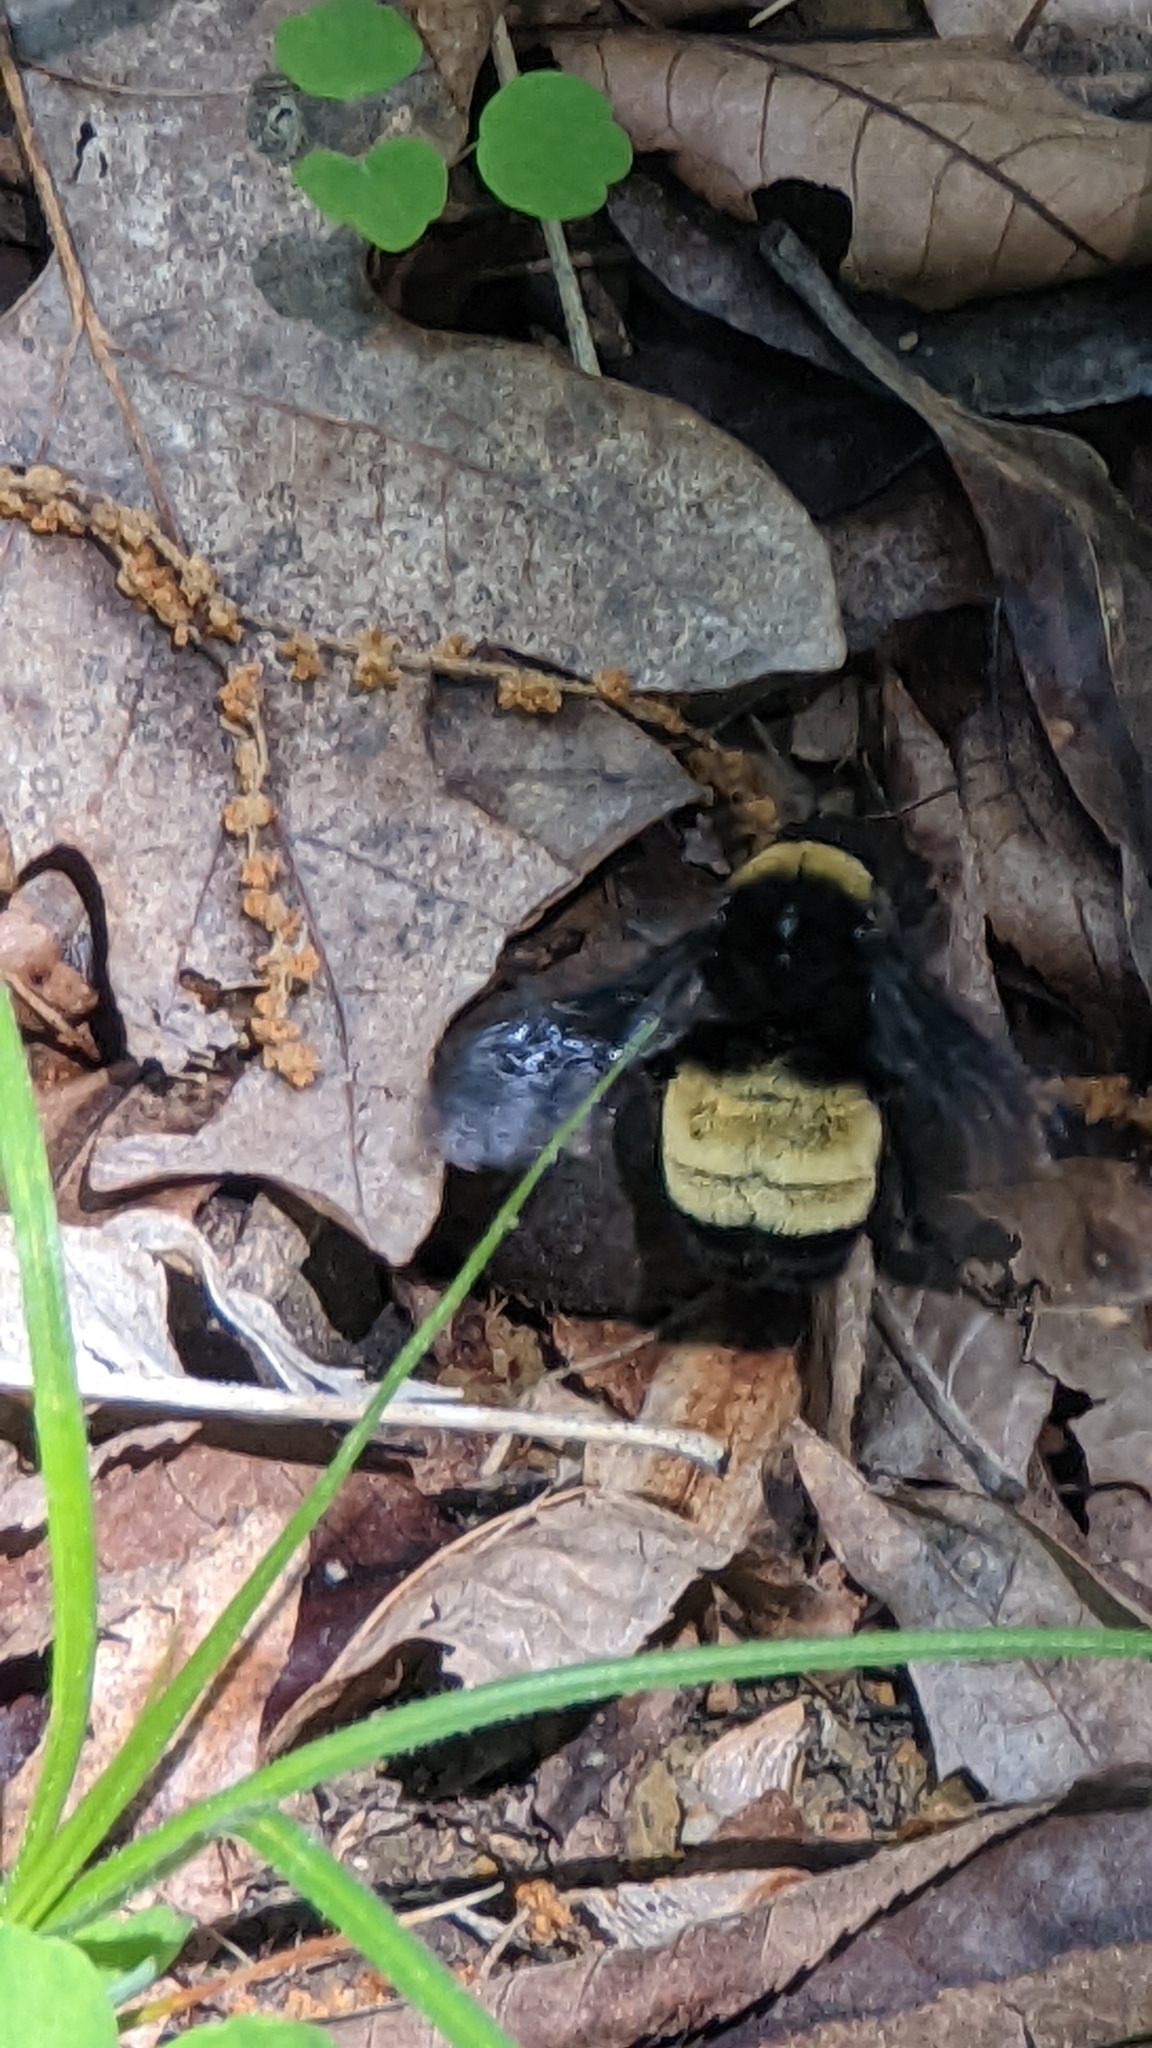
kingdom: Animalia
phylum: Arthropoda
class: Insecta
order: Hymenoptera
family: Apidae
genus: Bombus
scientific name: Bombus pensylvanicus
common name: Bumble bee
